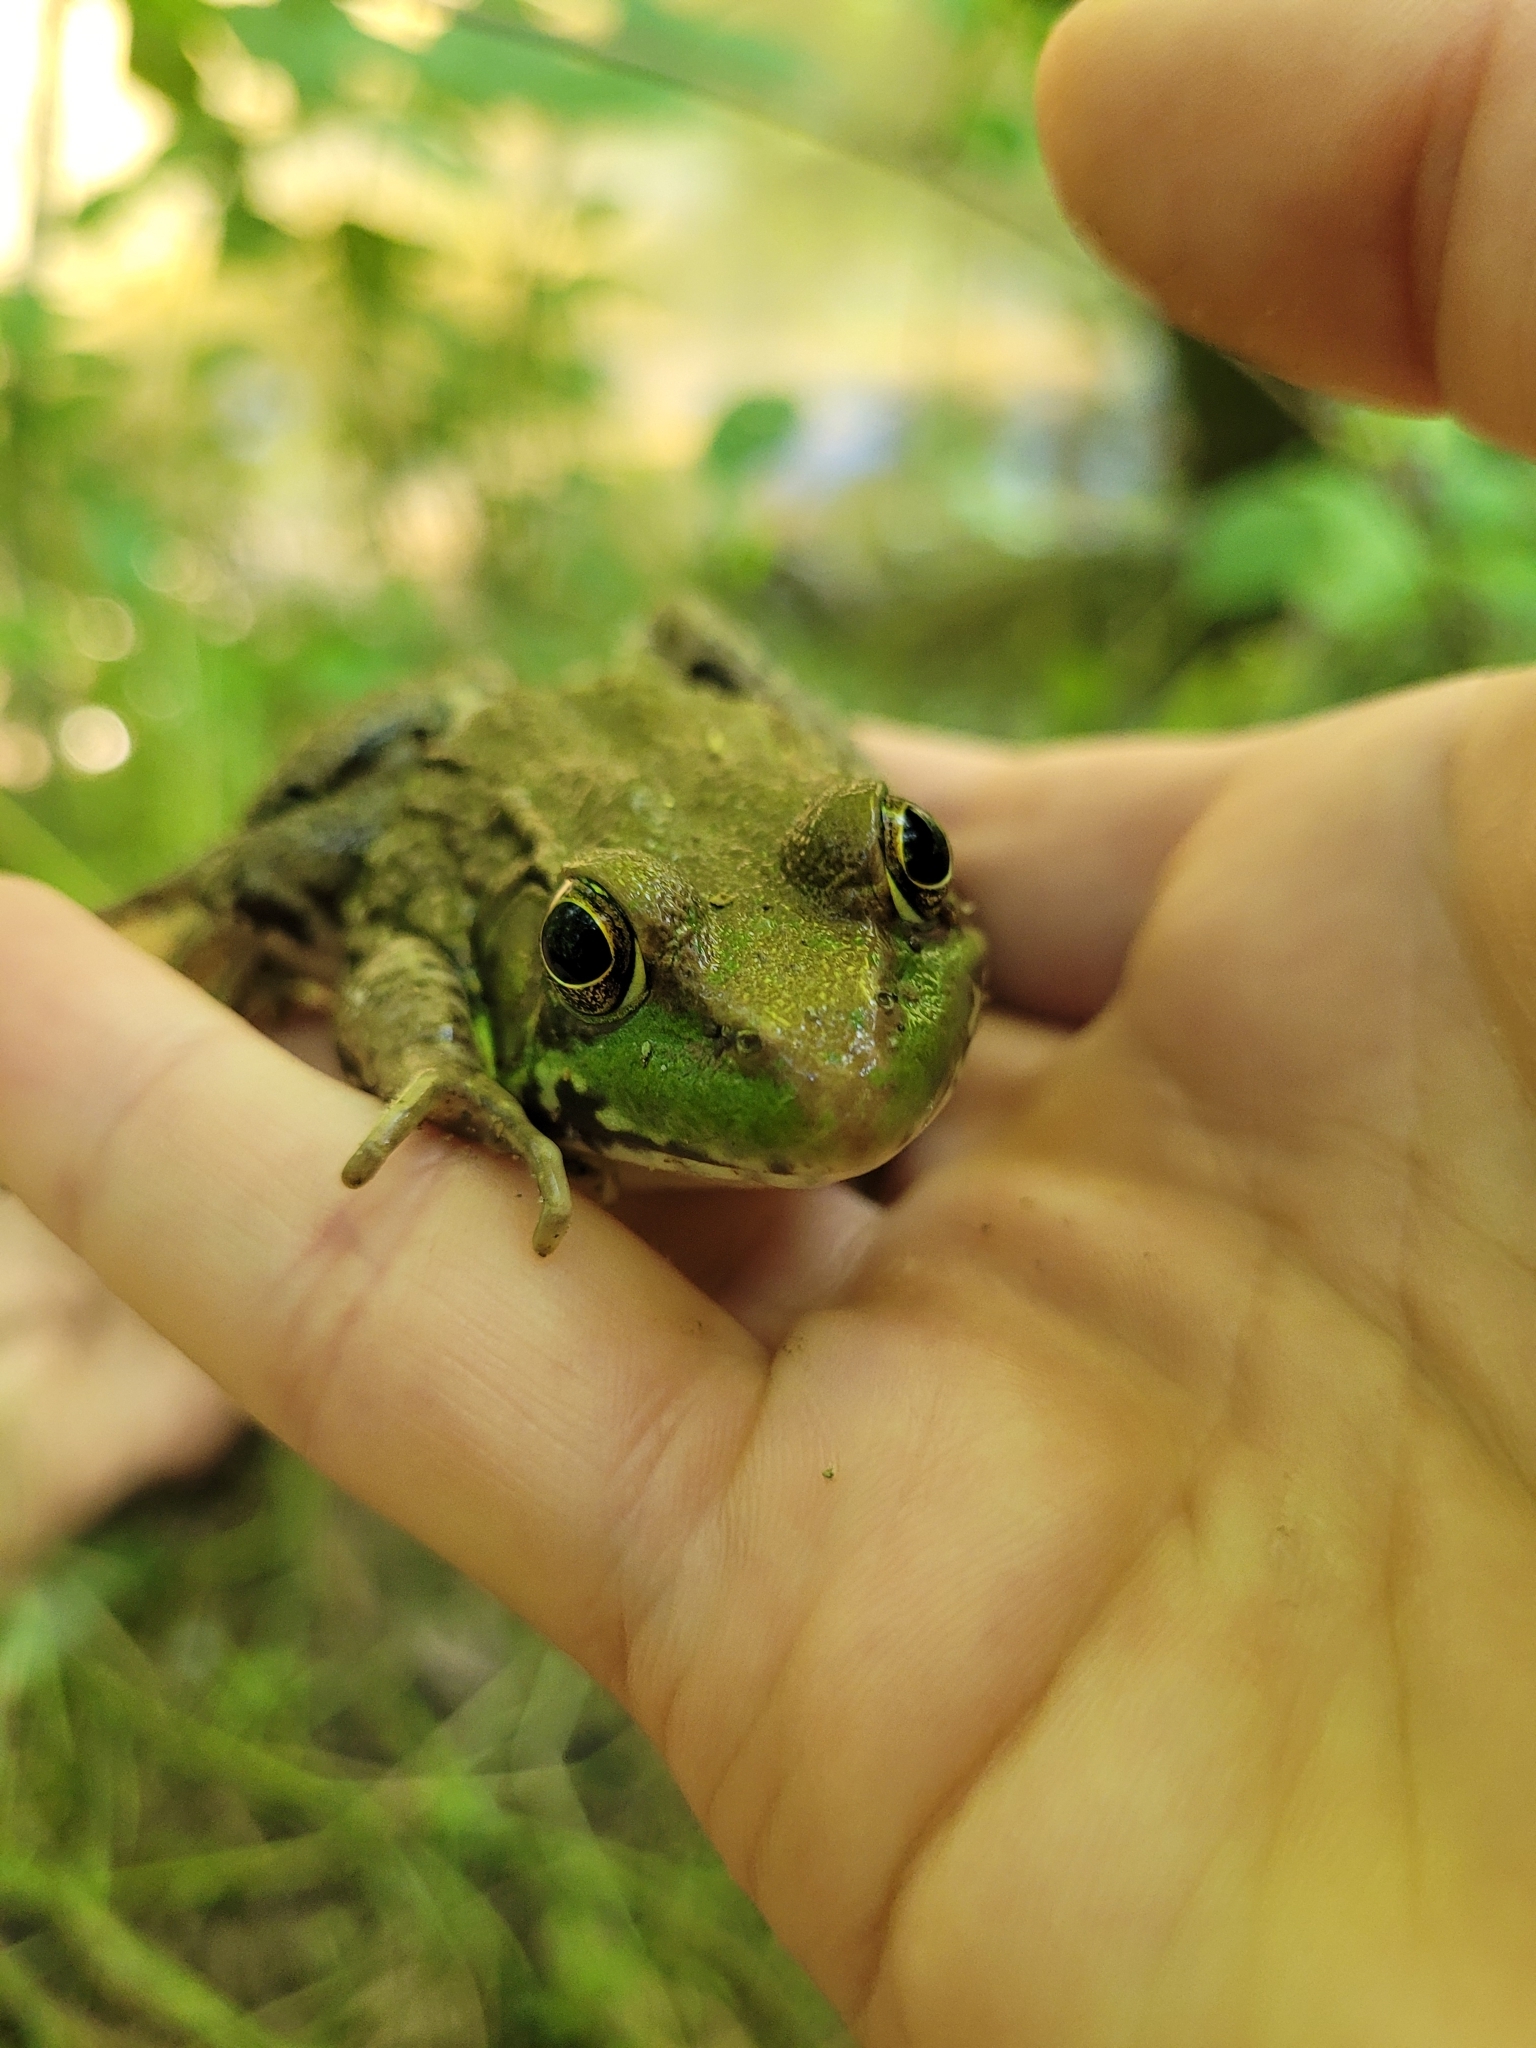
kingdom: Animalia
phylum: Chordata
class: Amphibia
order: Anura
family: Ranidae
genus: Lithobates
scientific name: Lithobates clamitans
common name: Green frog
